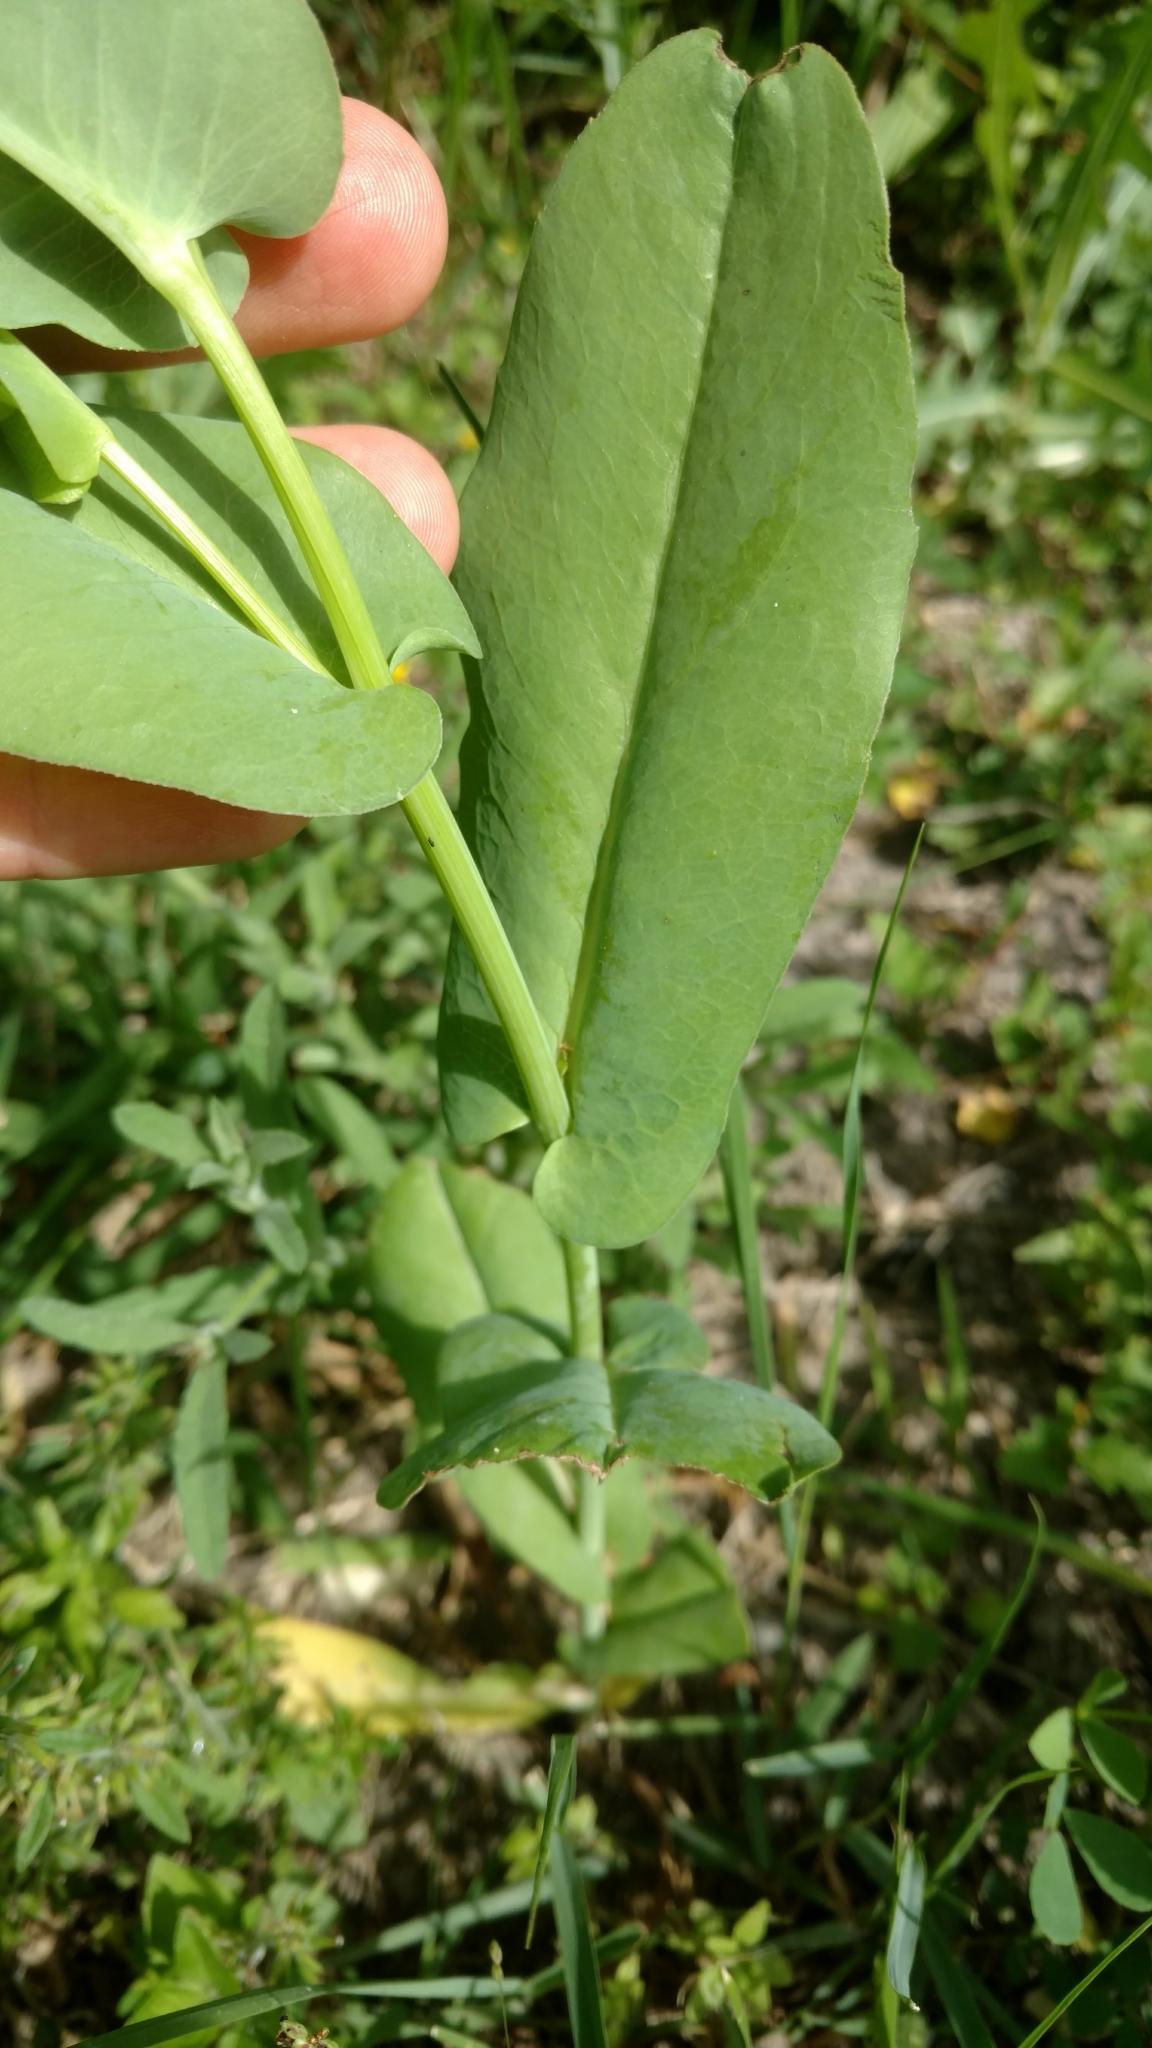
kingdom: Plantae
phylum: Tracheophyta
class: Magnoliopsida
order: Asterales
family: Asteraceae
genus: Rudbeckia
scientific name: Rudbeckia amplexicaulis
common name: Clasping-leaf coneflower
